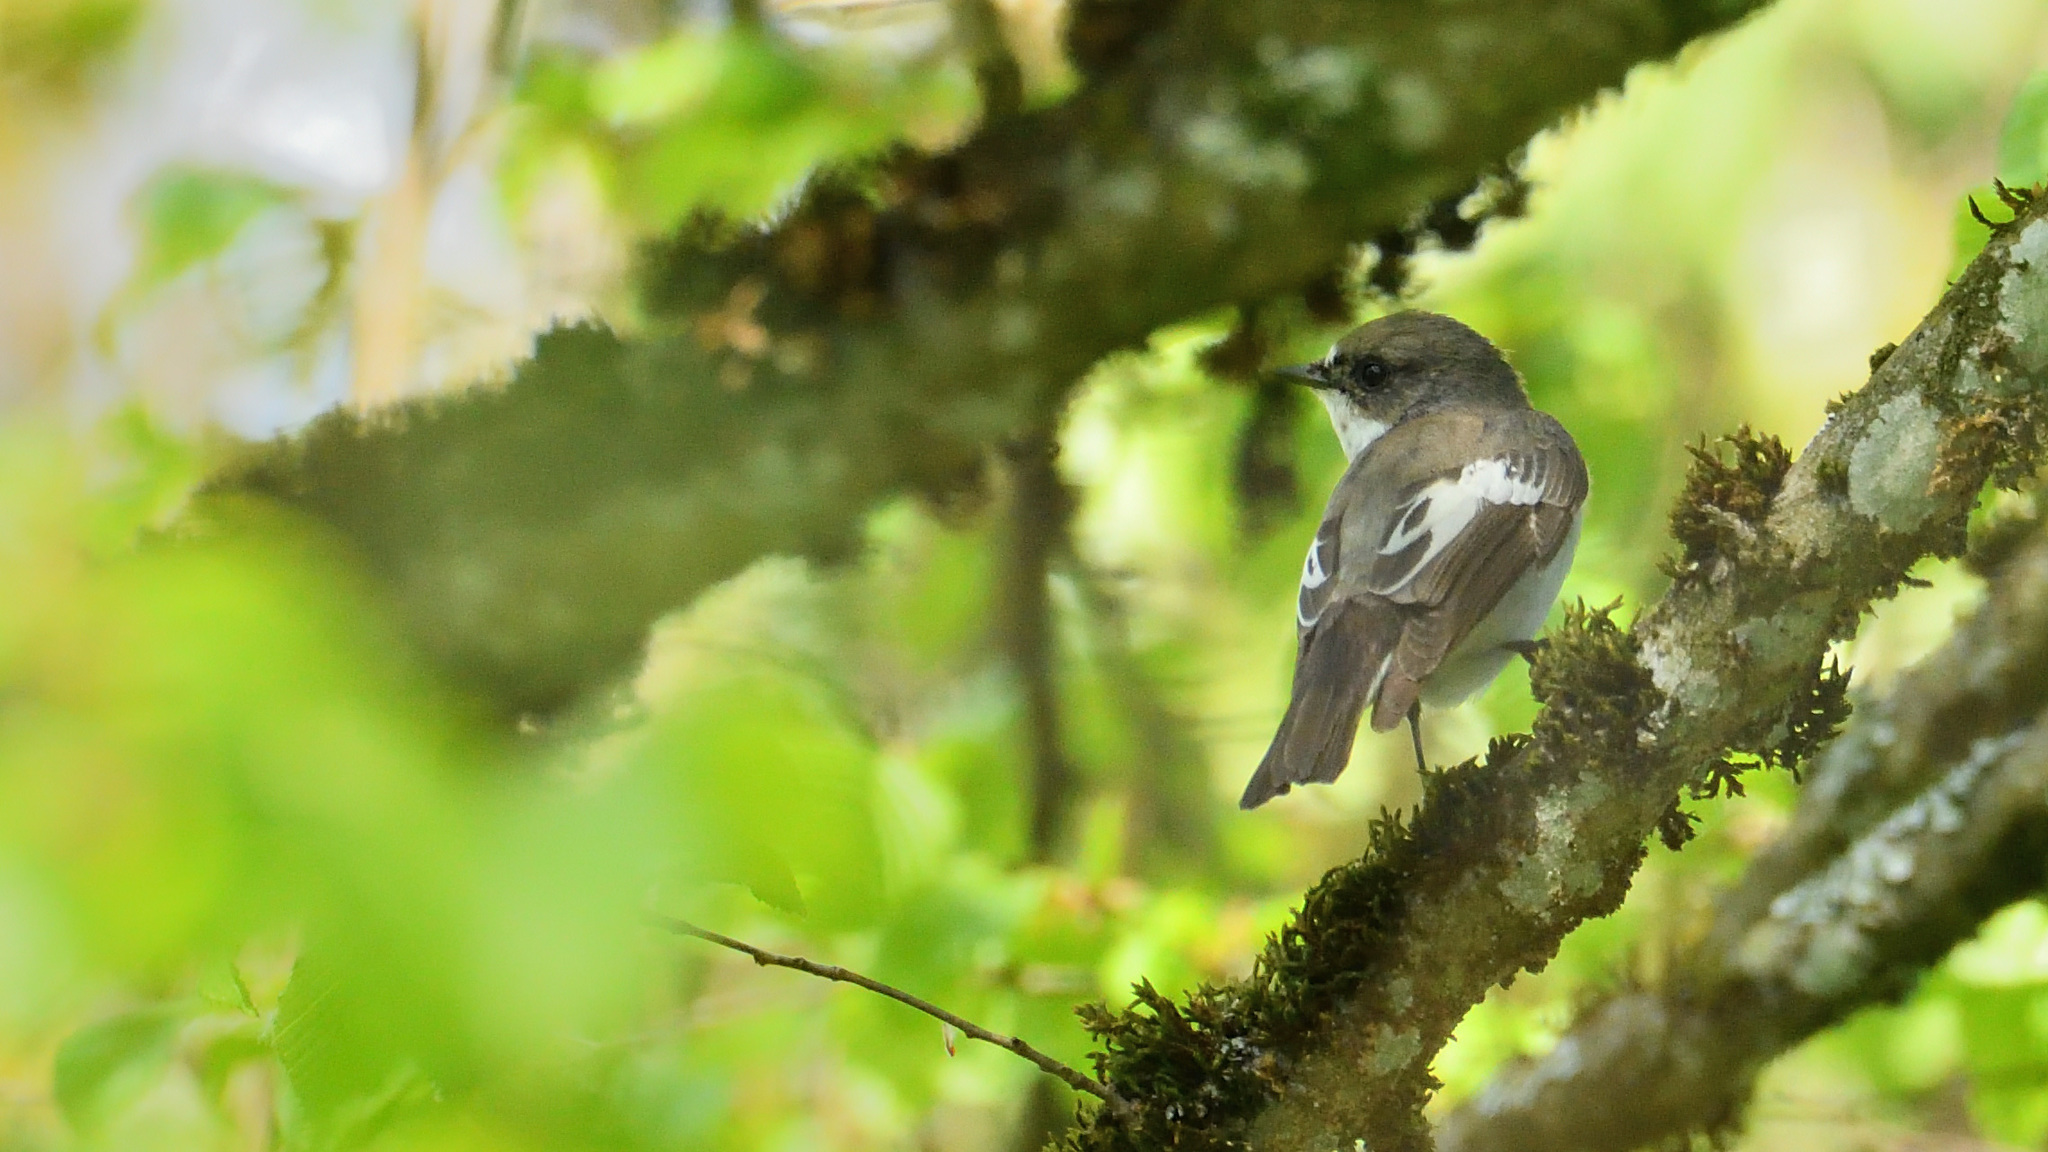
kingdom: Animalia
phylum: Chordata
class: Aves
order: Passeriformes
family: Muscicapidae
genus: Ficedula
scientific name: Ficedula hypoleuca
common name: European pied flycatcher
